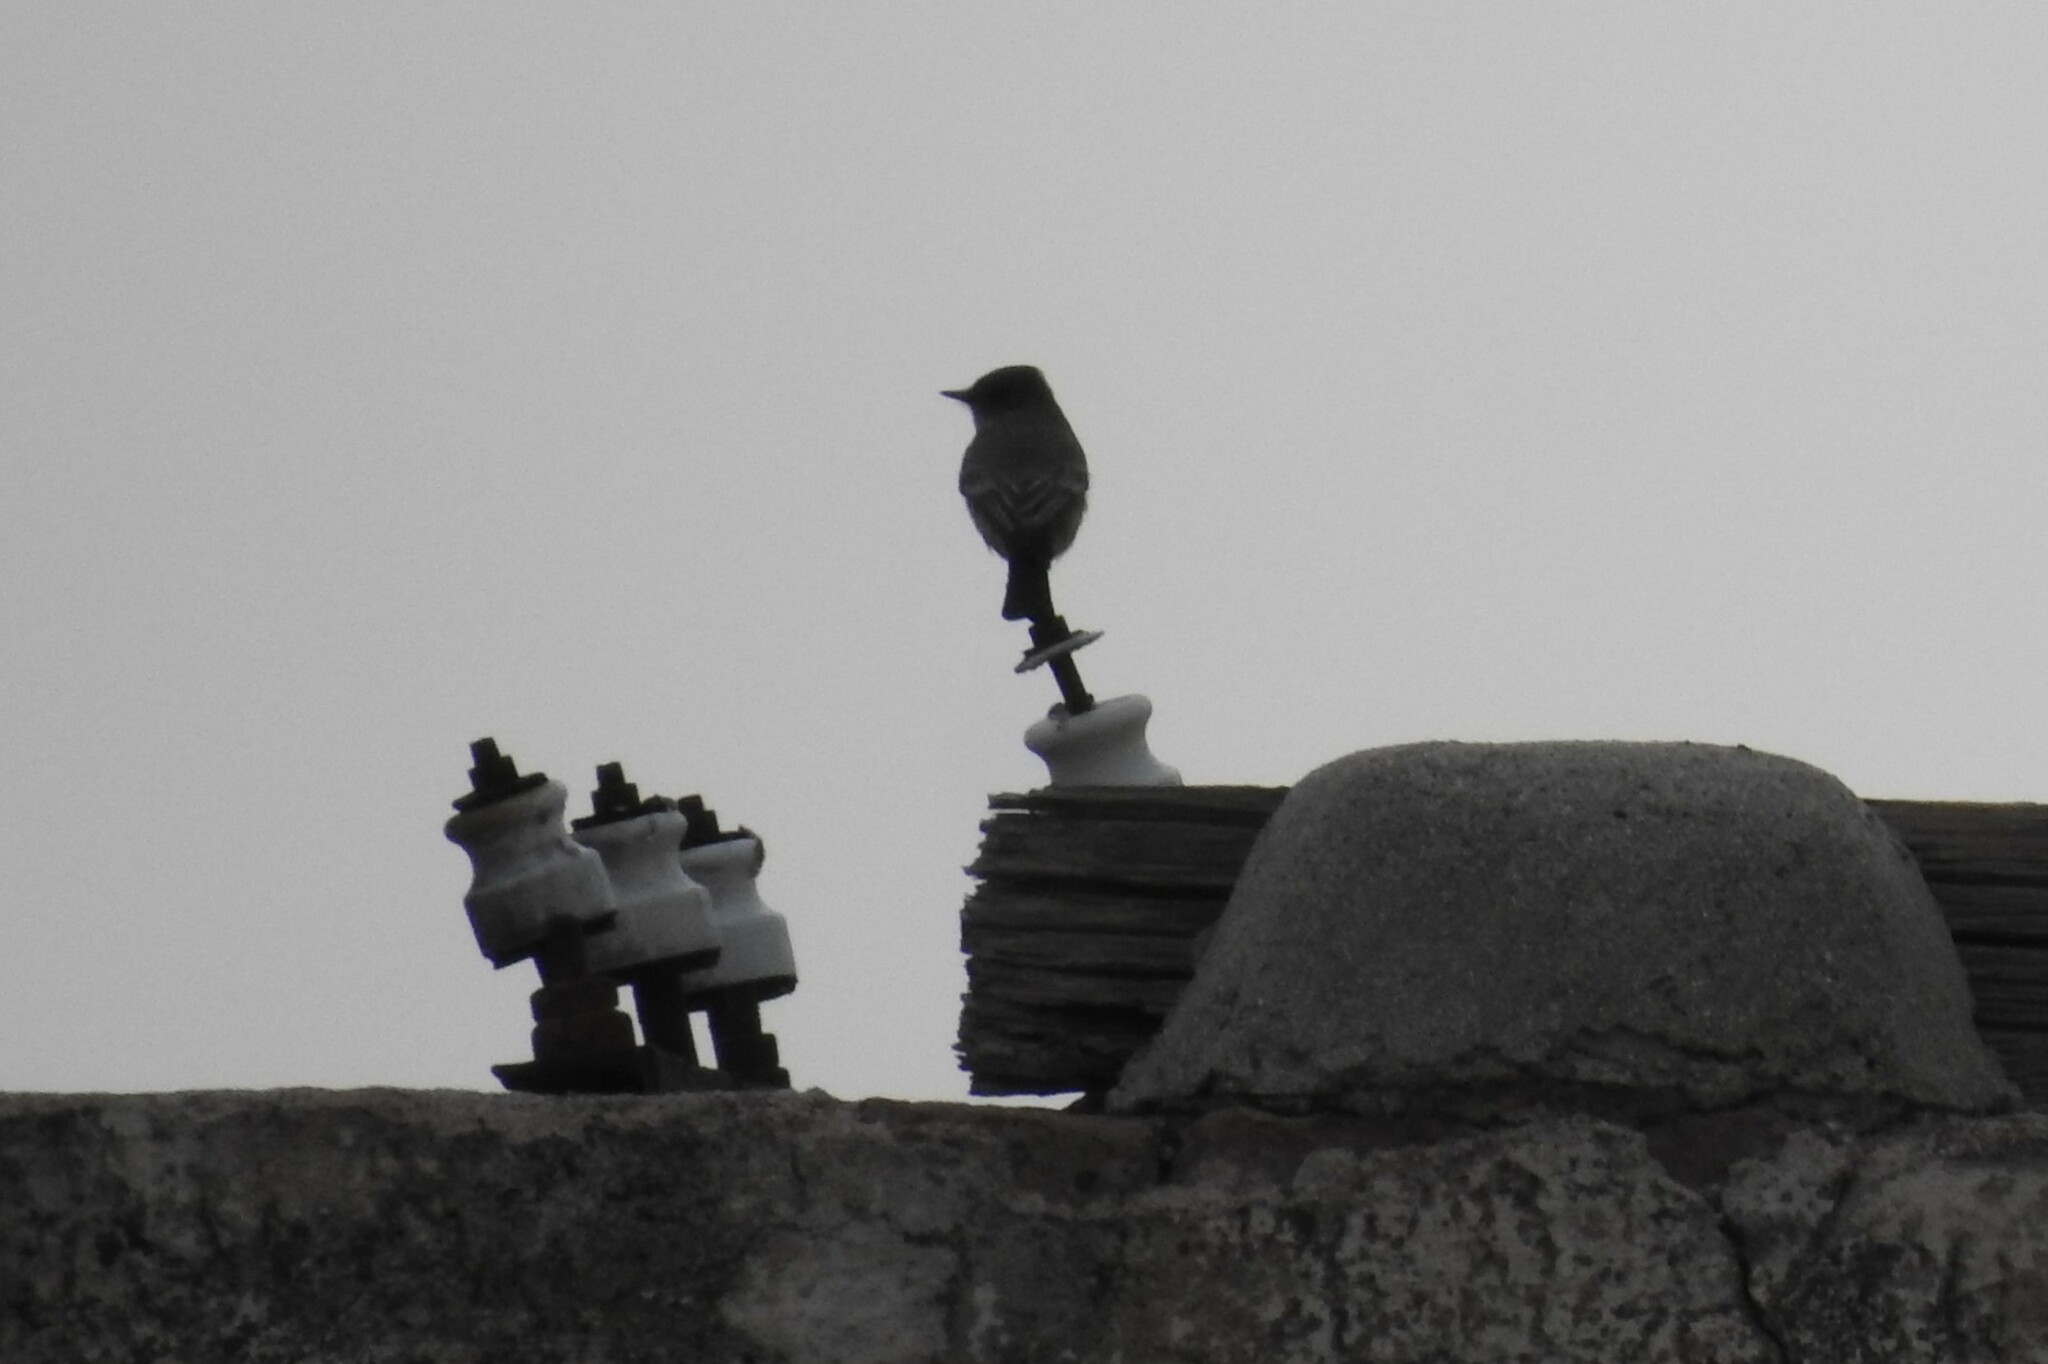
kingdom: Animalia
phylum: Chordata
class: Aves
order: Passeriformes
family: Tyrannidae
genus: Sayornis
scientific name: Sayornis saya
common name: Say's phoebe
